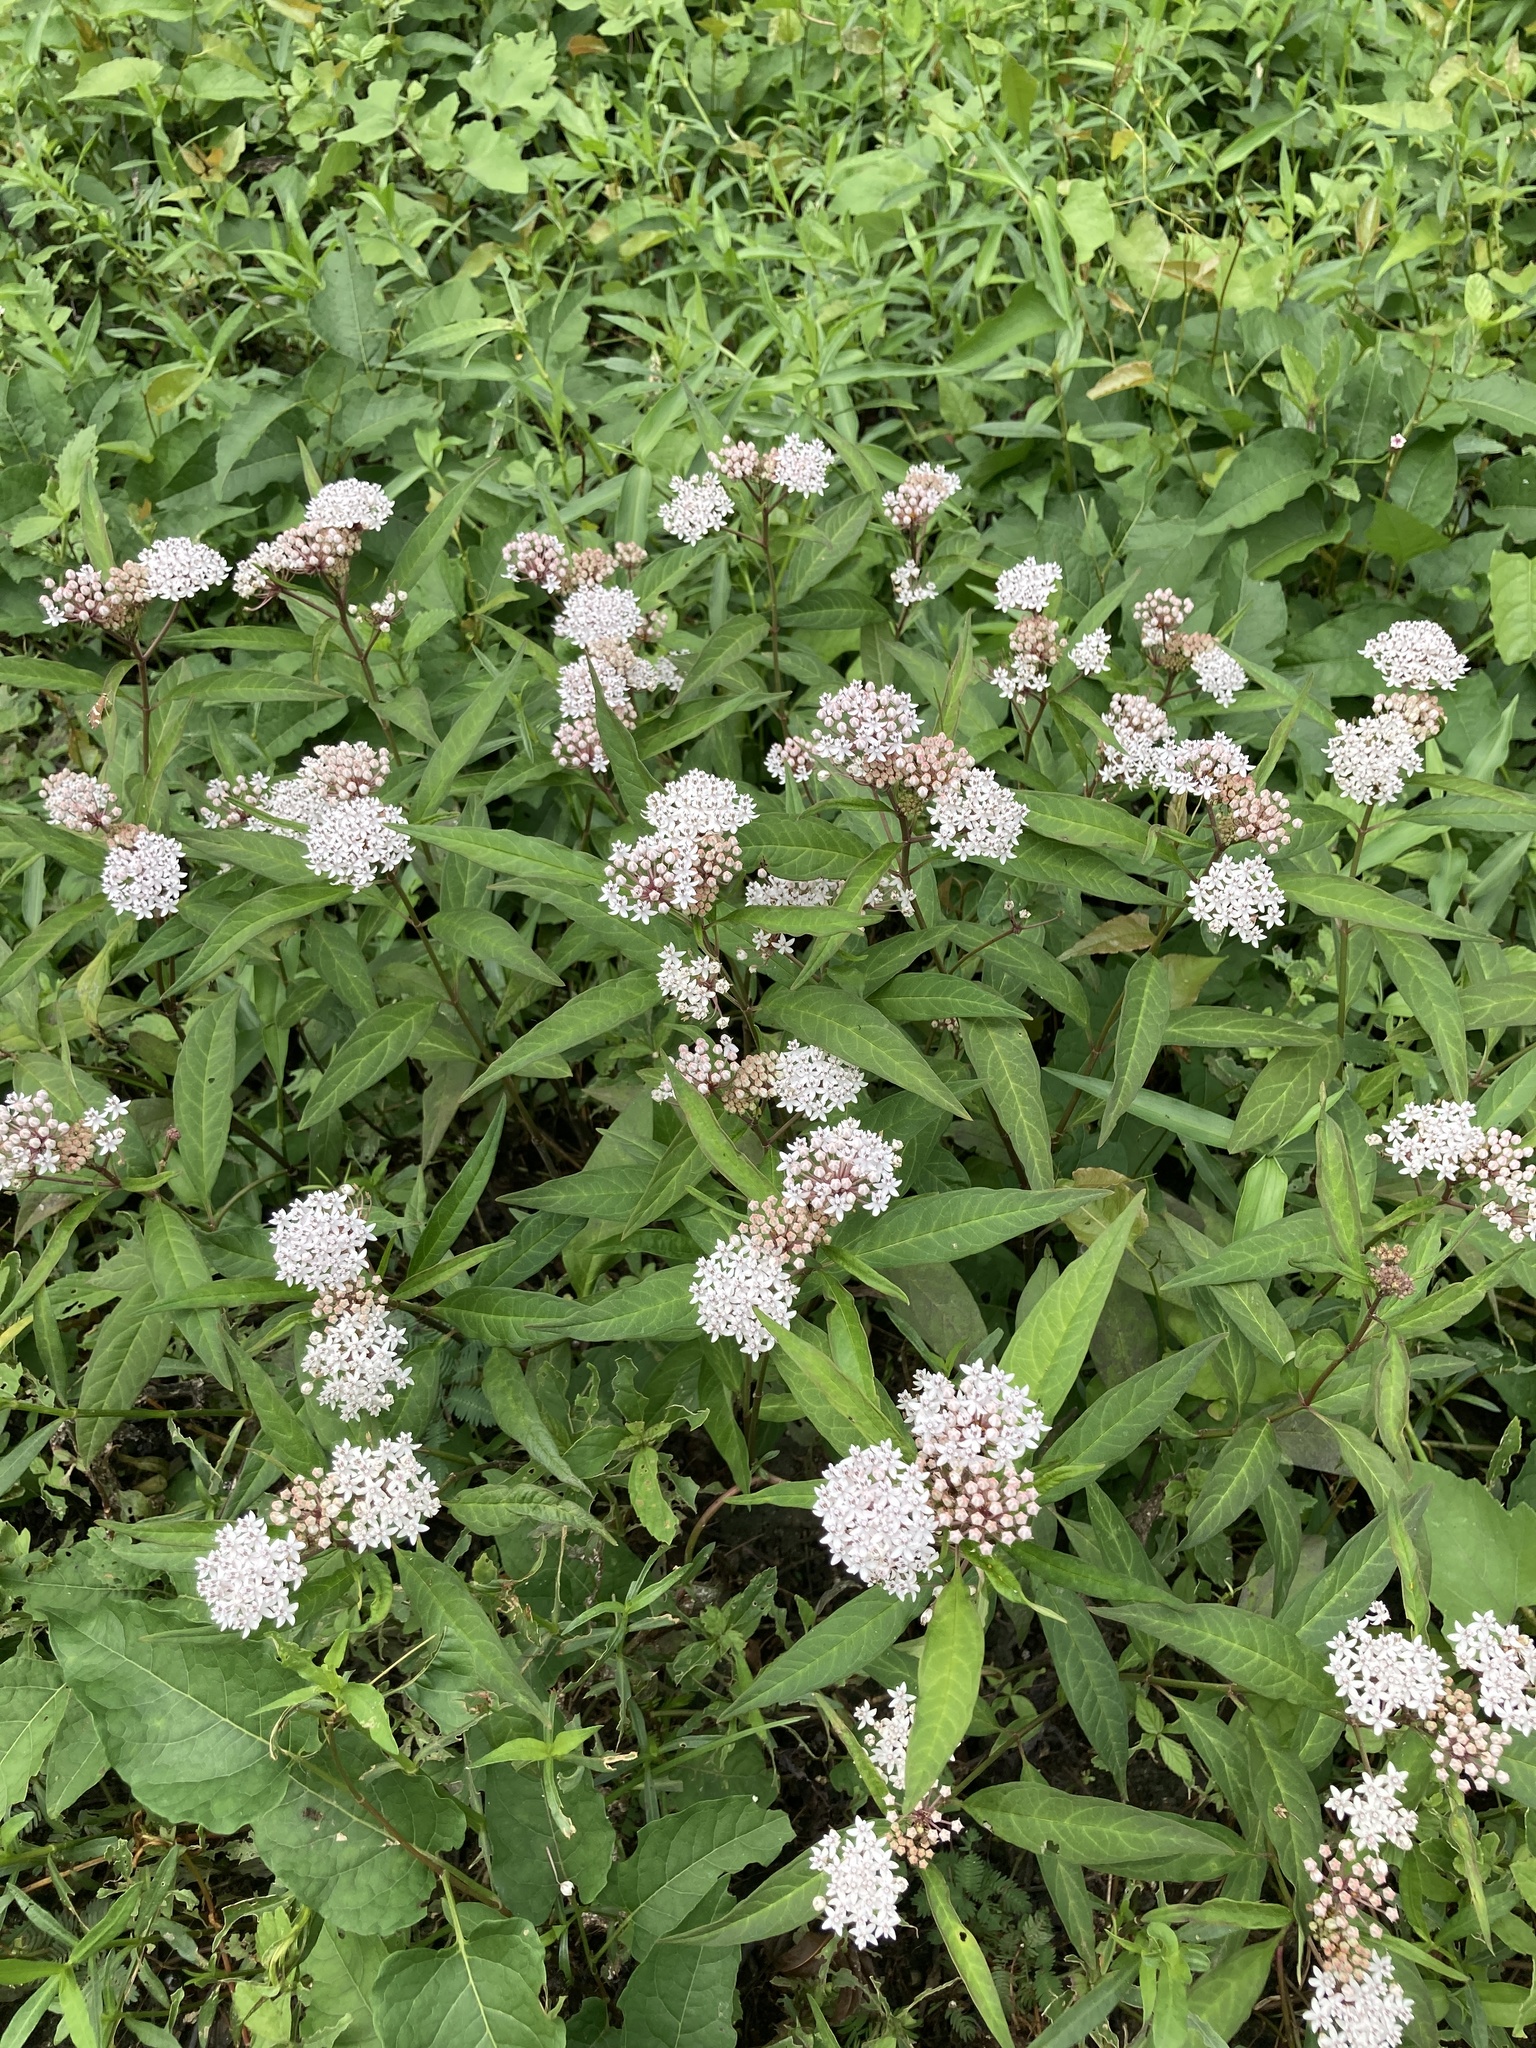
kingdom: Plantae
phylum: Tracheophyta
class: Magnoliopsida
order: Gentianales
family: Apocynaceae
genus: Asclepias
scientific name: Asclepias perennis
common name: Smooth-seed milkweed
